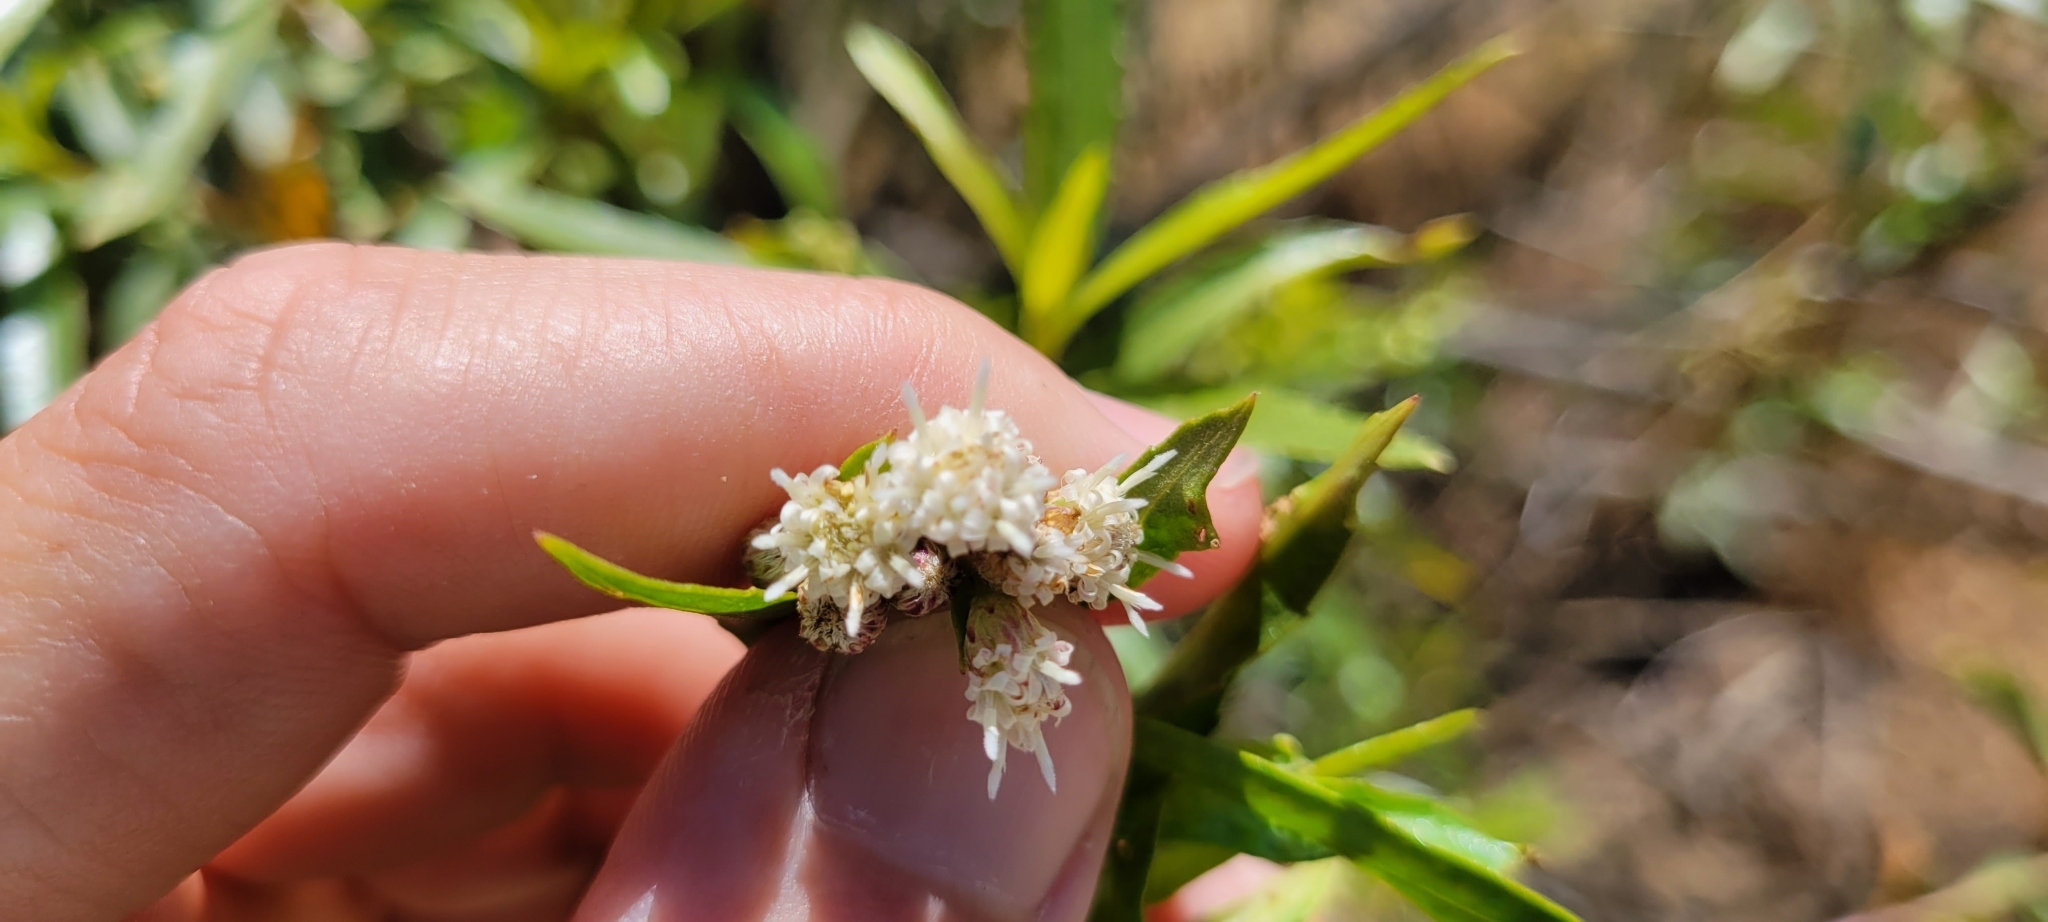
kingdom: Plantae
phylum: Tracheophyta
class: Magnoliopsida
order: Asterales
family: Asteraceae
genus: Baccharis
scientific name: Baccharis salicifolia
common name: Sticky baccharis
